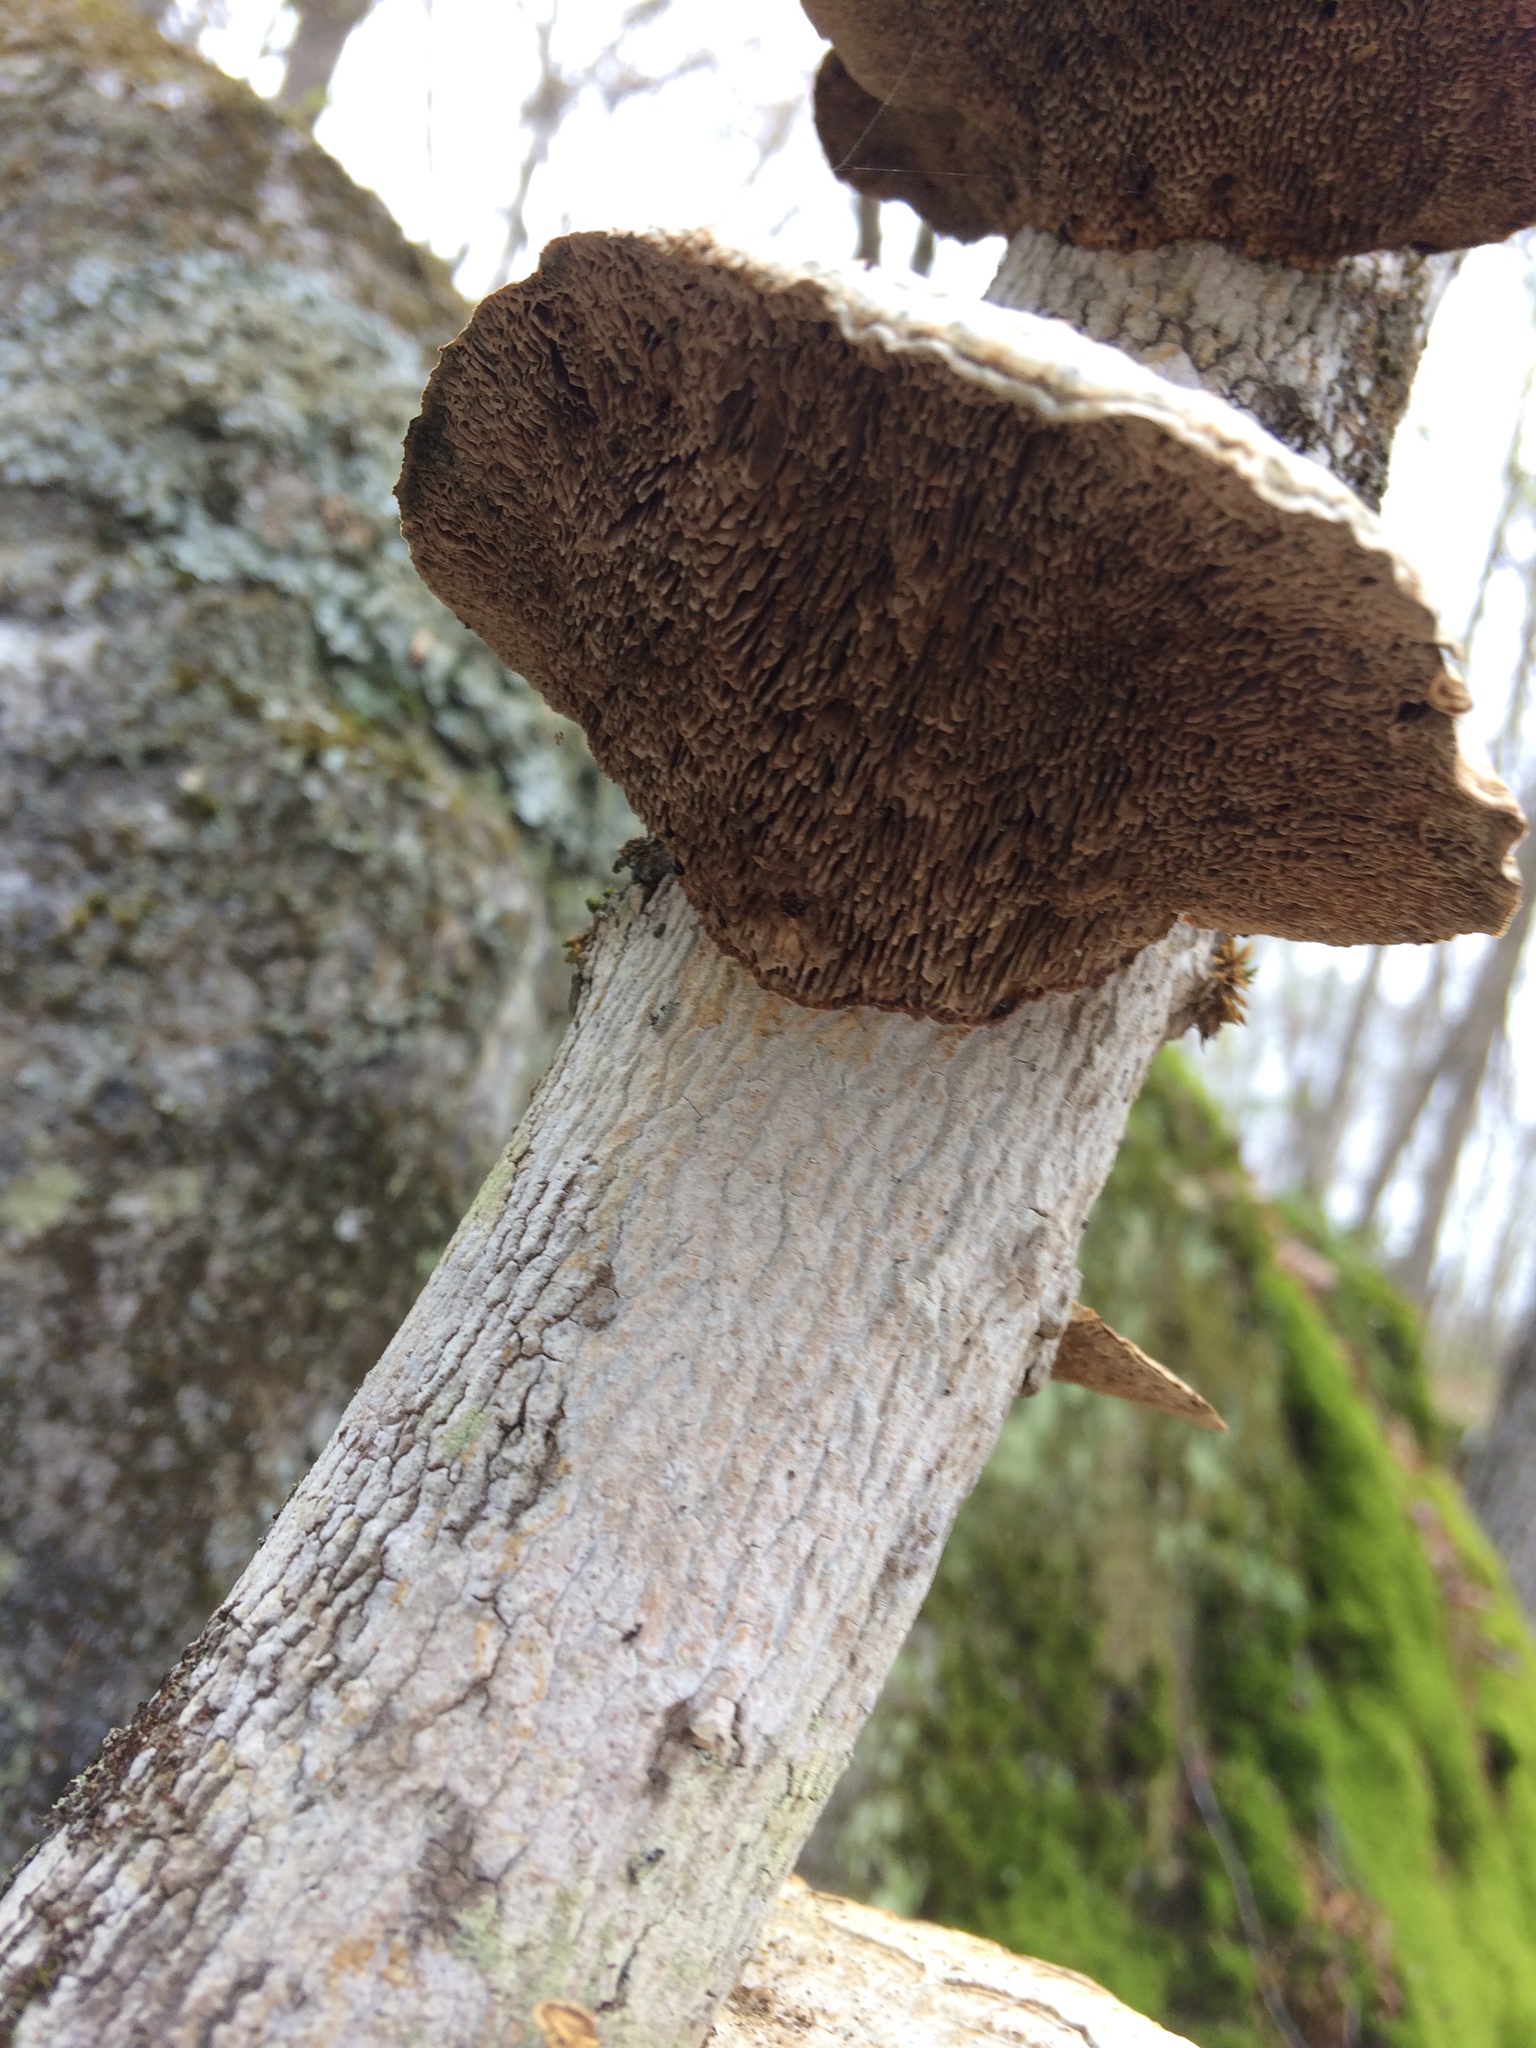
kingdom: Fungi
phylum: Basidiomycota
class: Agaricomycetes
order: Polyporales
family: Polyporaceae
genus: Daedaleopsis
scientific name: Daedaleopsis confragosa
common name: Blushing bracket
